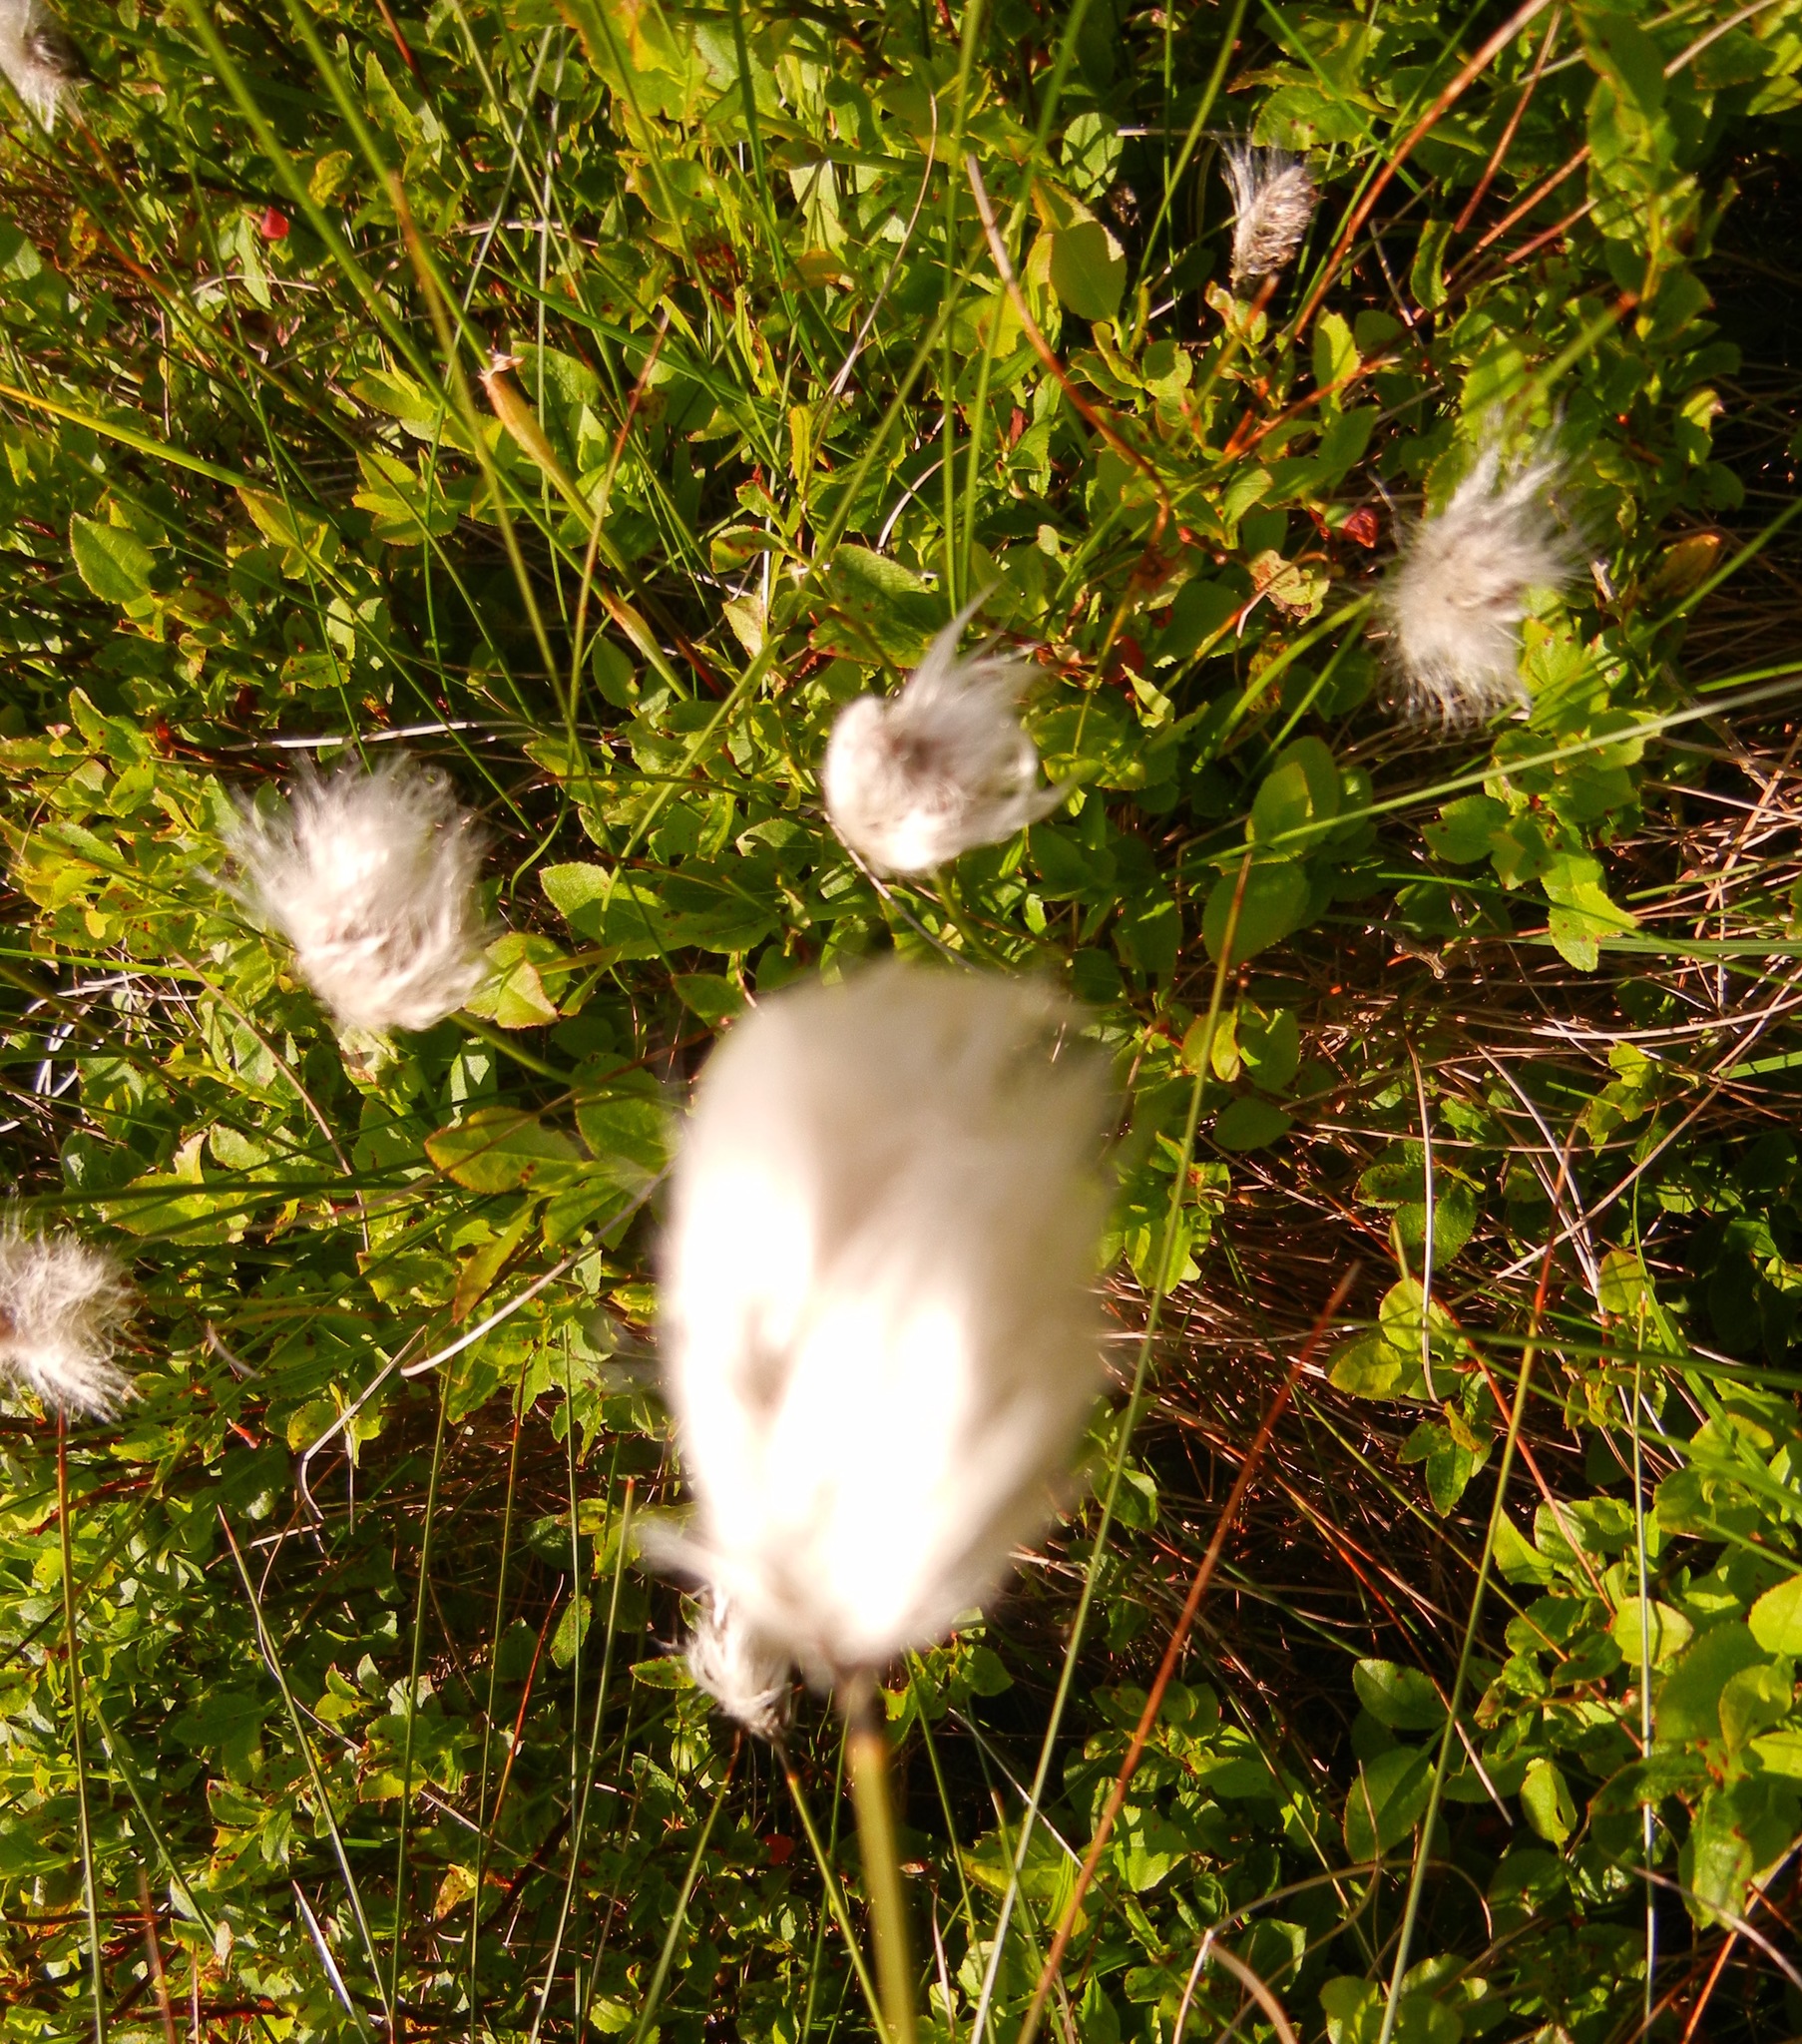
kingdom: Plantae
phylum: Tracheophyta
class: Liliopsida
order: Poales
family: Cyperaceae
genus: Eriophorum
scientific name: Eriophorum vaginatum
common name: Hare's-tail cottongrass
